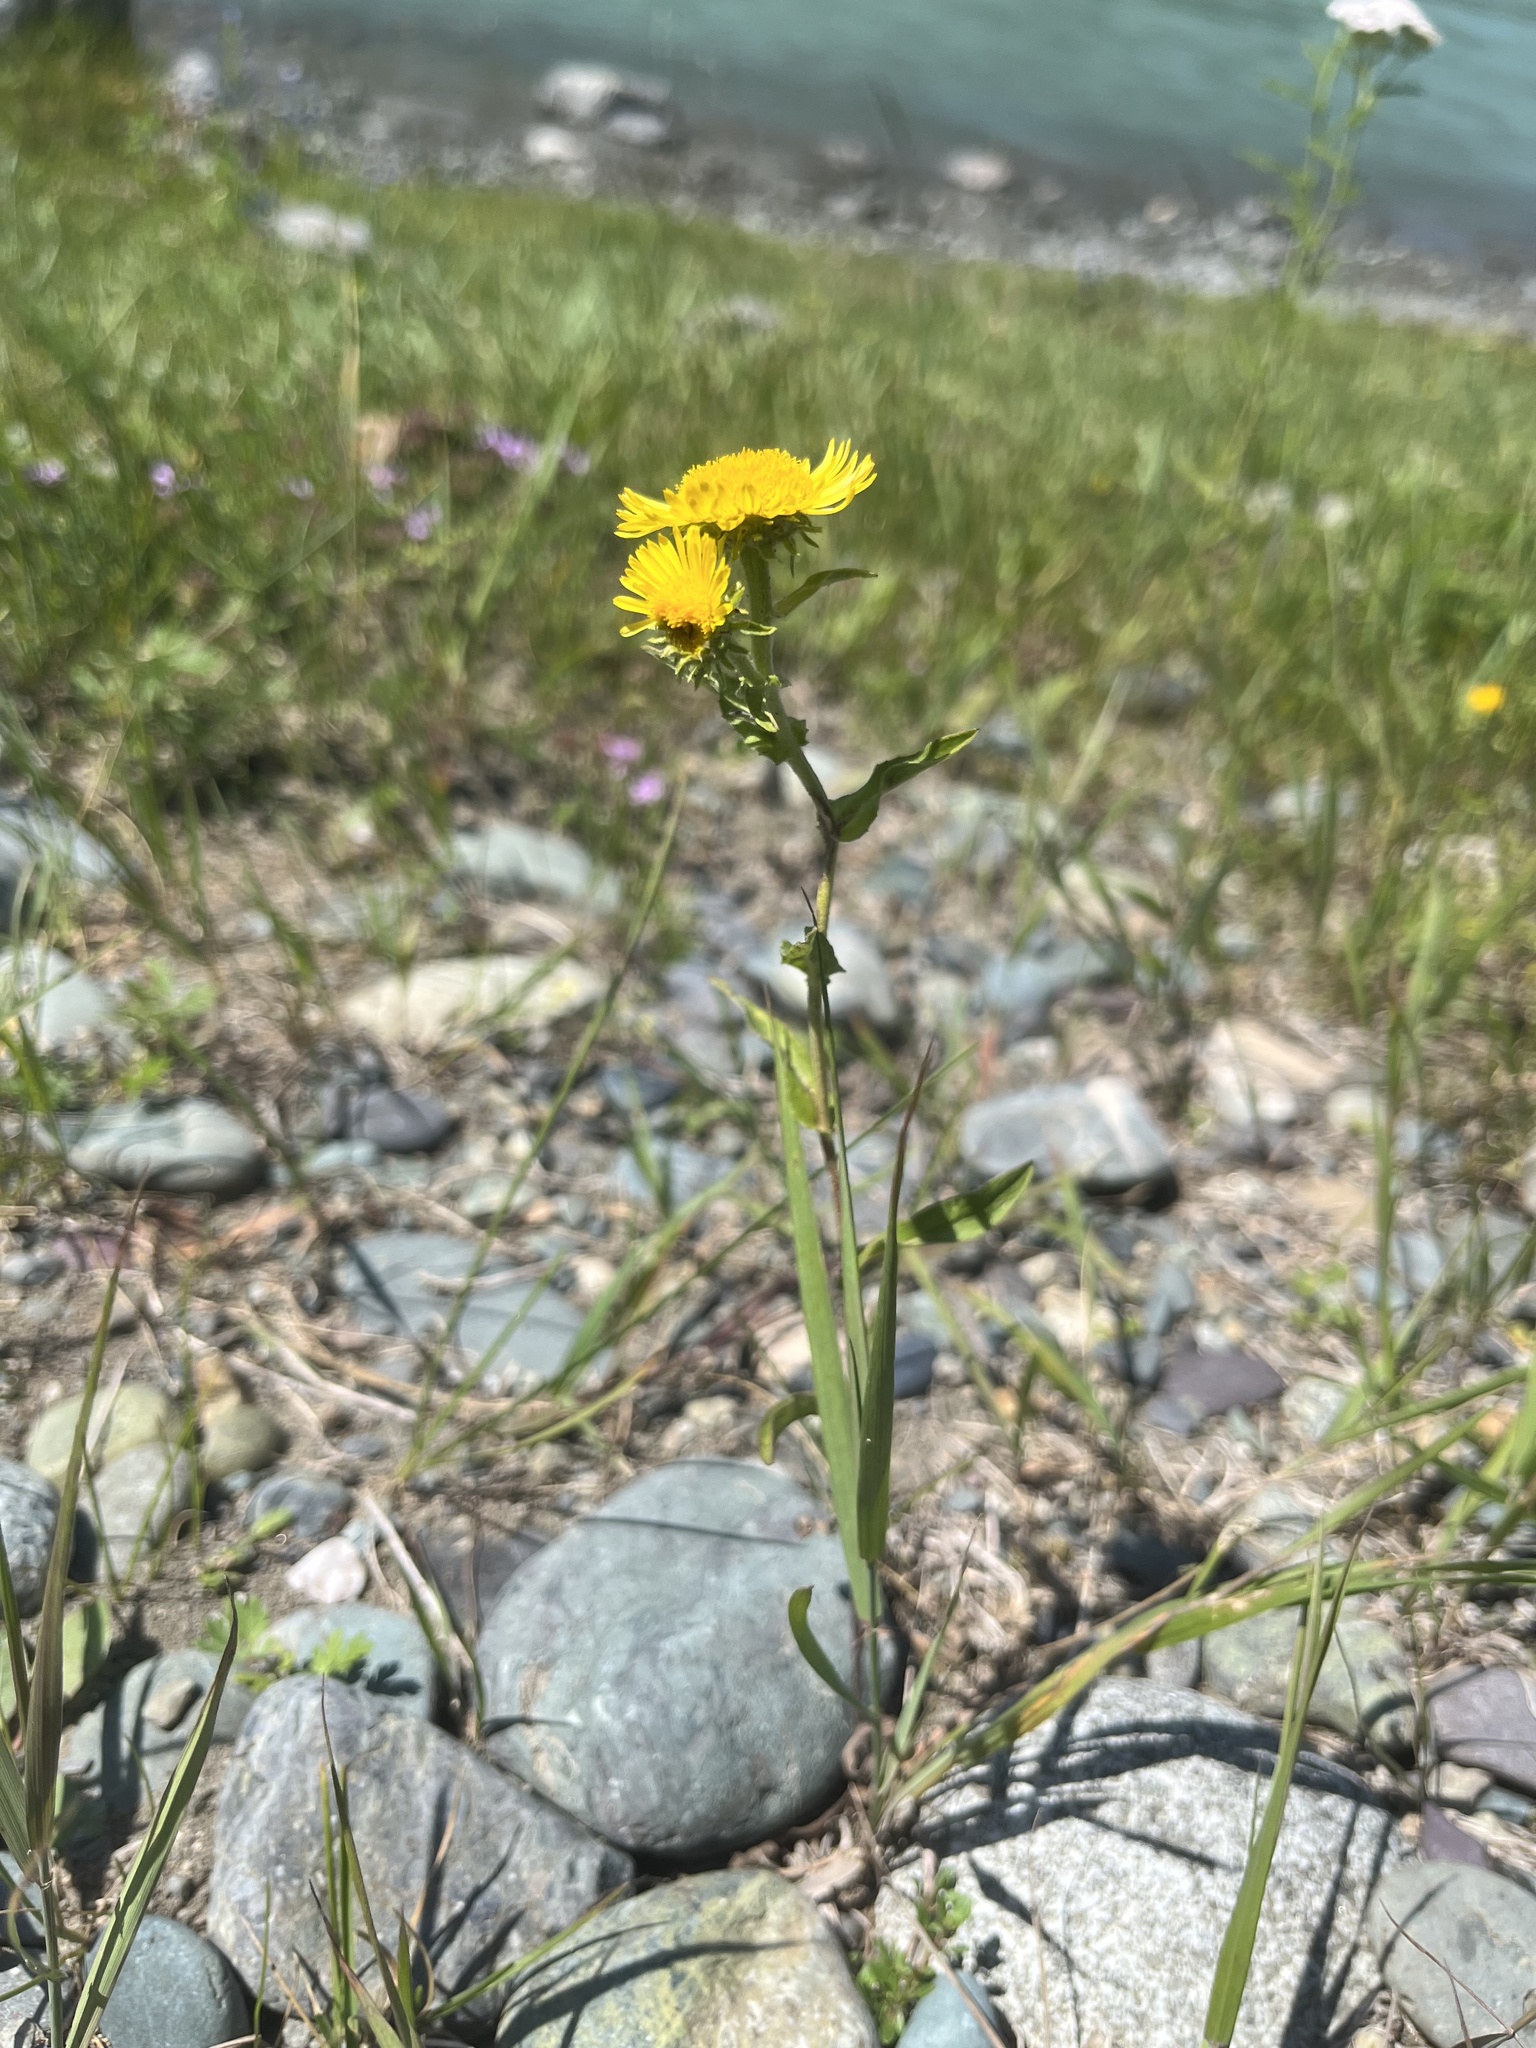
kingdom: Plantae
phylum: Tracheophyta
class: Magnoliopsida
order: Asterales
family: Asteraceae
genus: Pentanema
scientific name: Pentanema britannicum
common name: British elecampane
